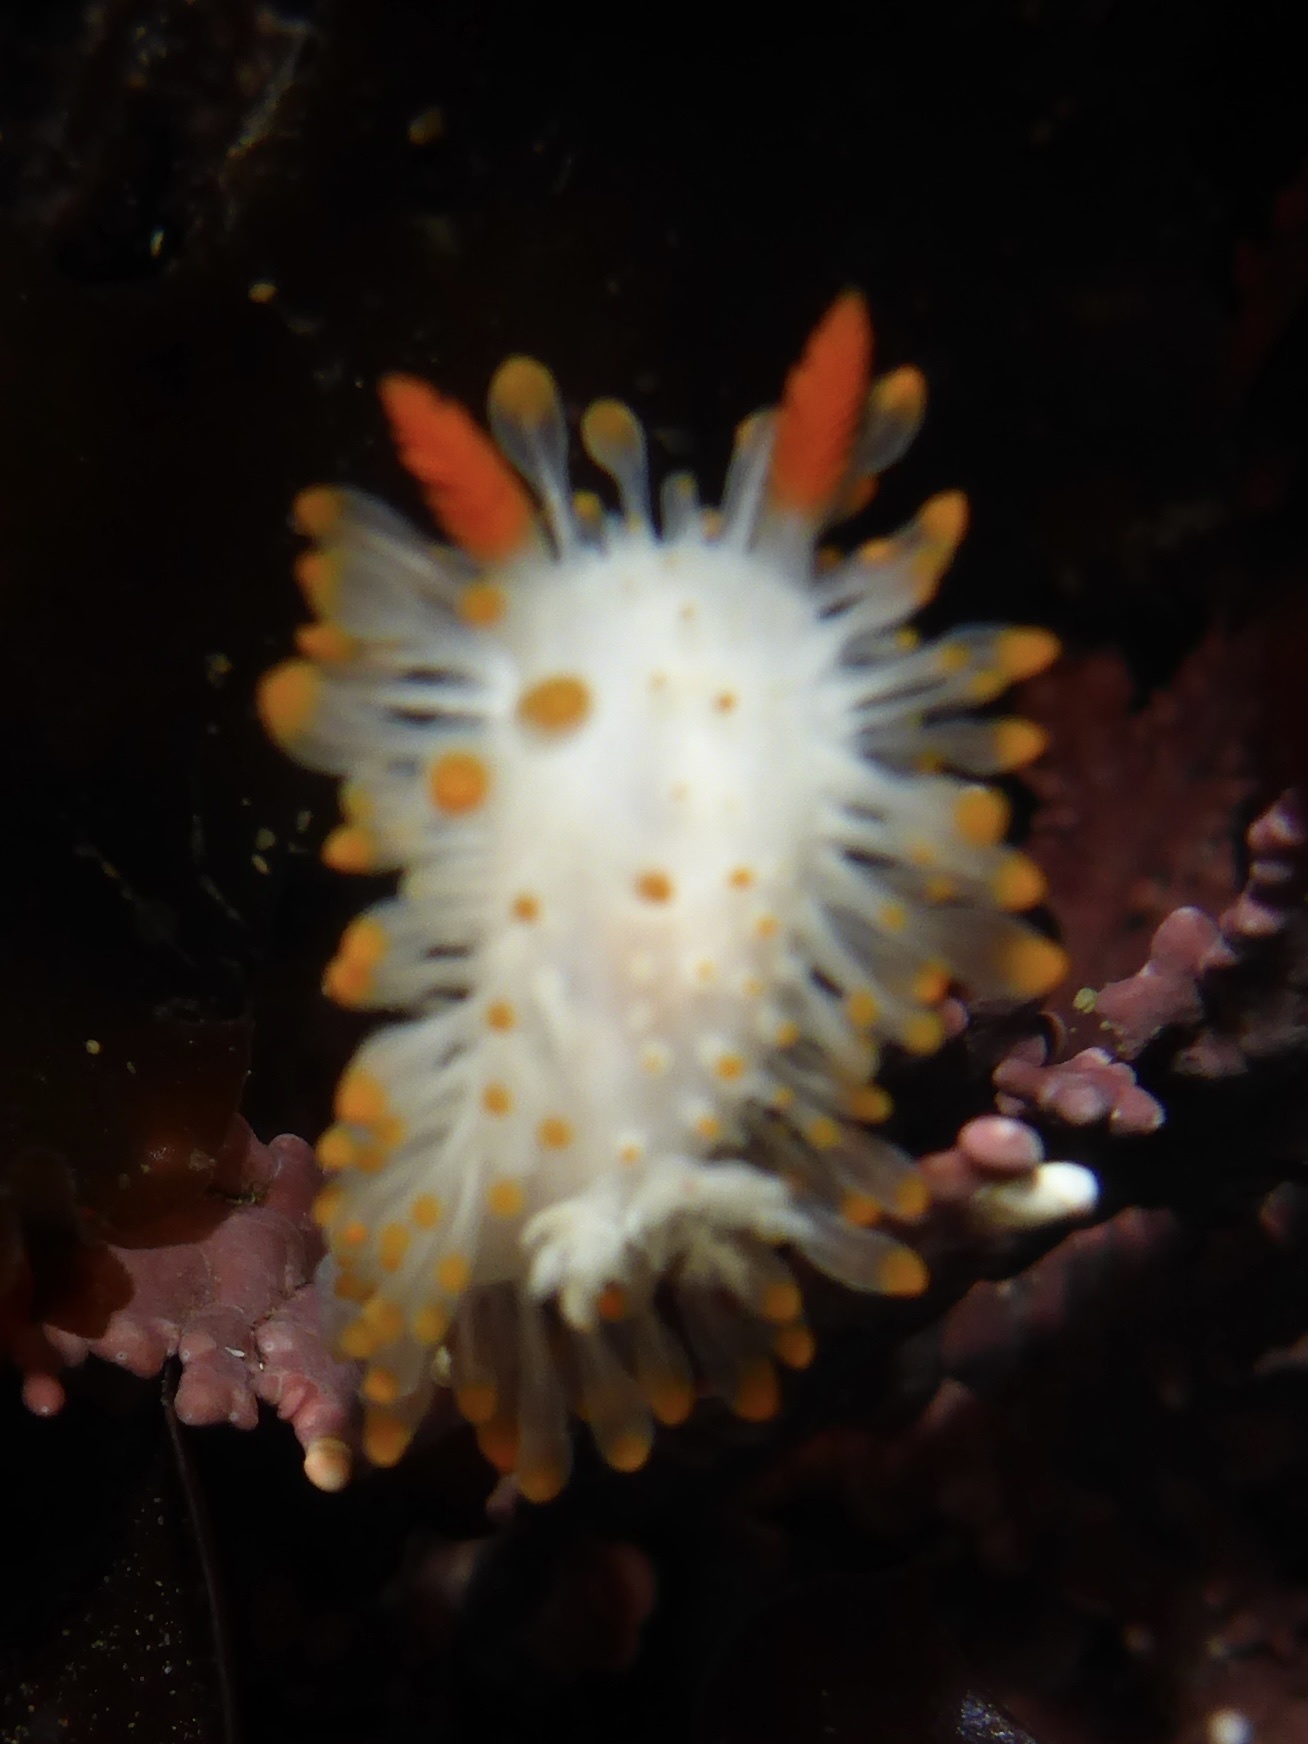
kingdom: Animalia
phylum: Mollusca
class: Gastropoda
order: Nudibranchia
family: Polyceridae
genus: Limacia
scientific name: Limacia cockerelli
